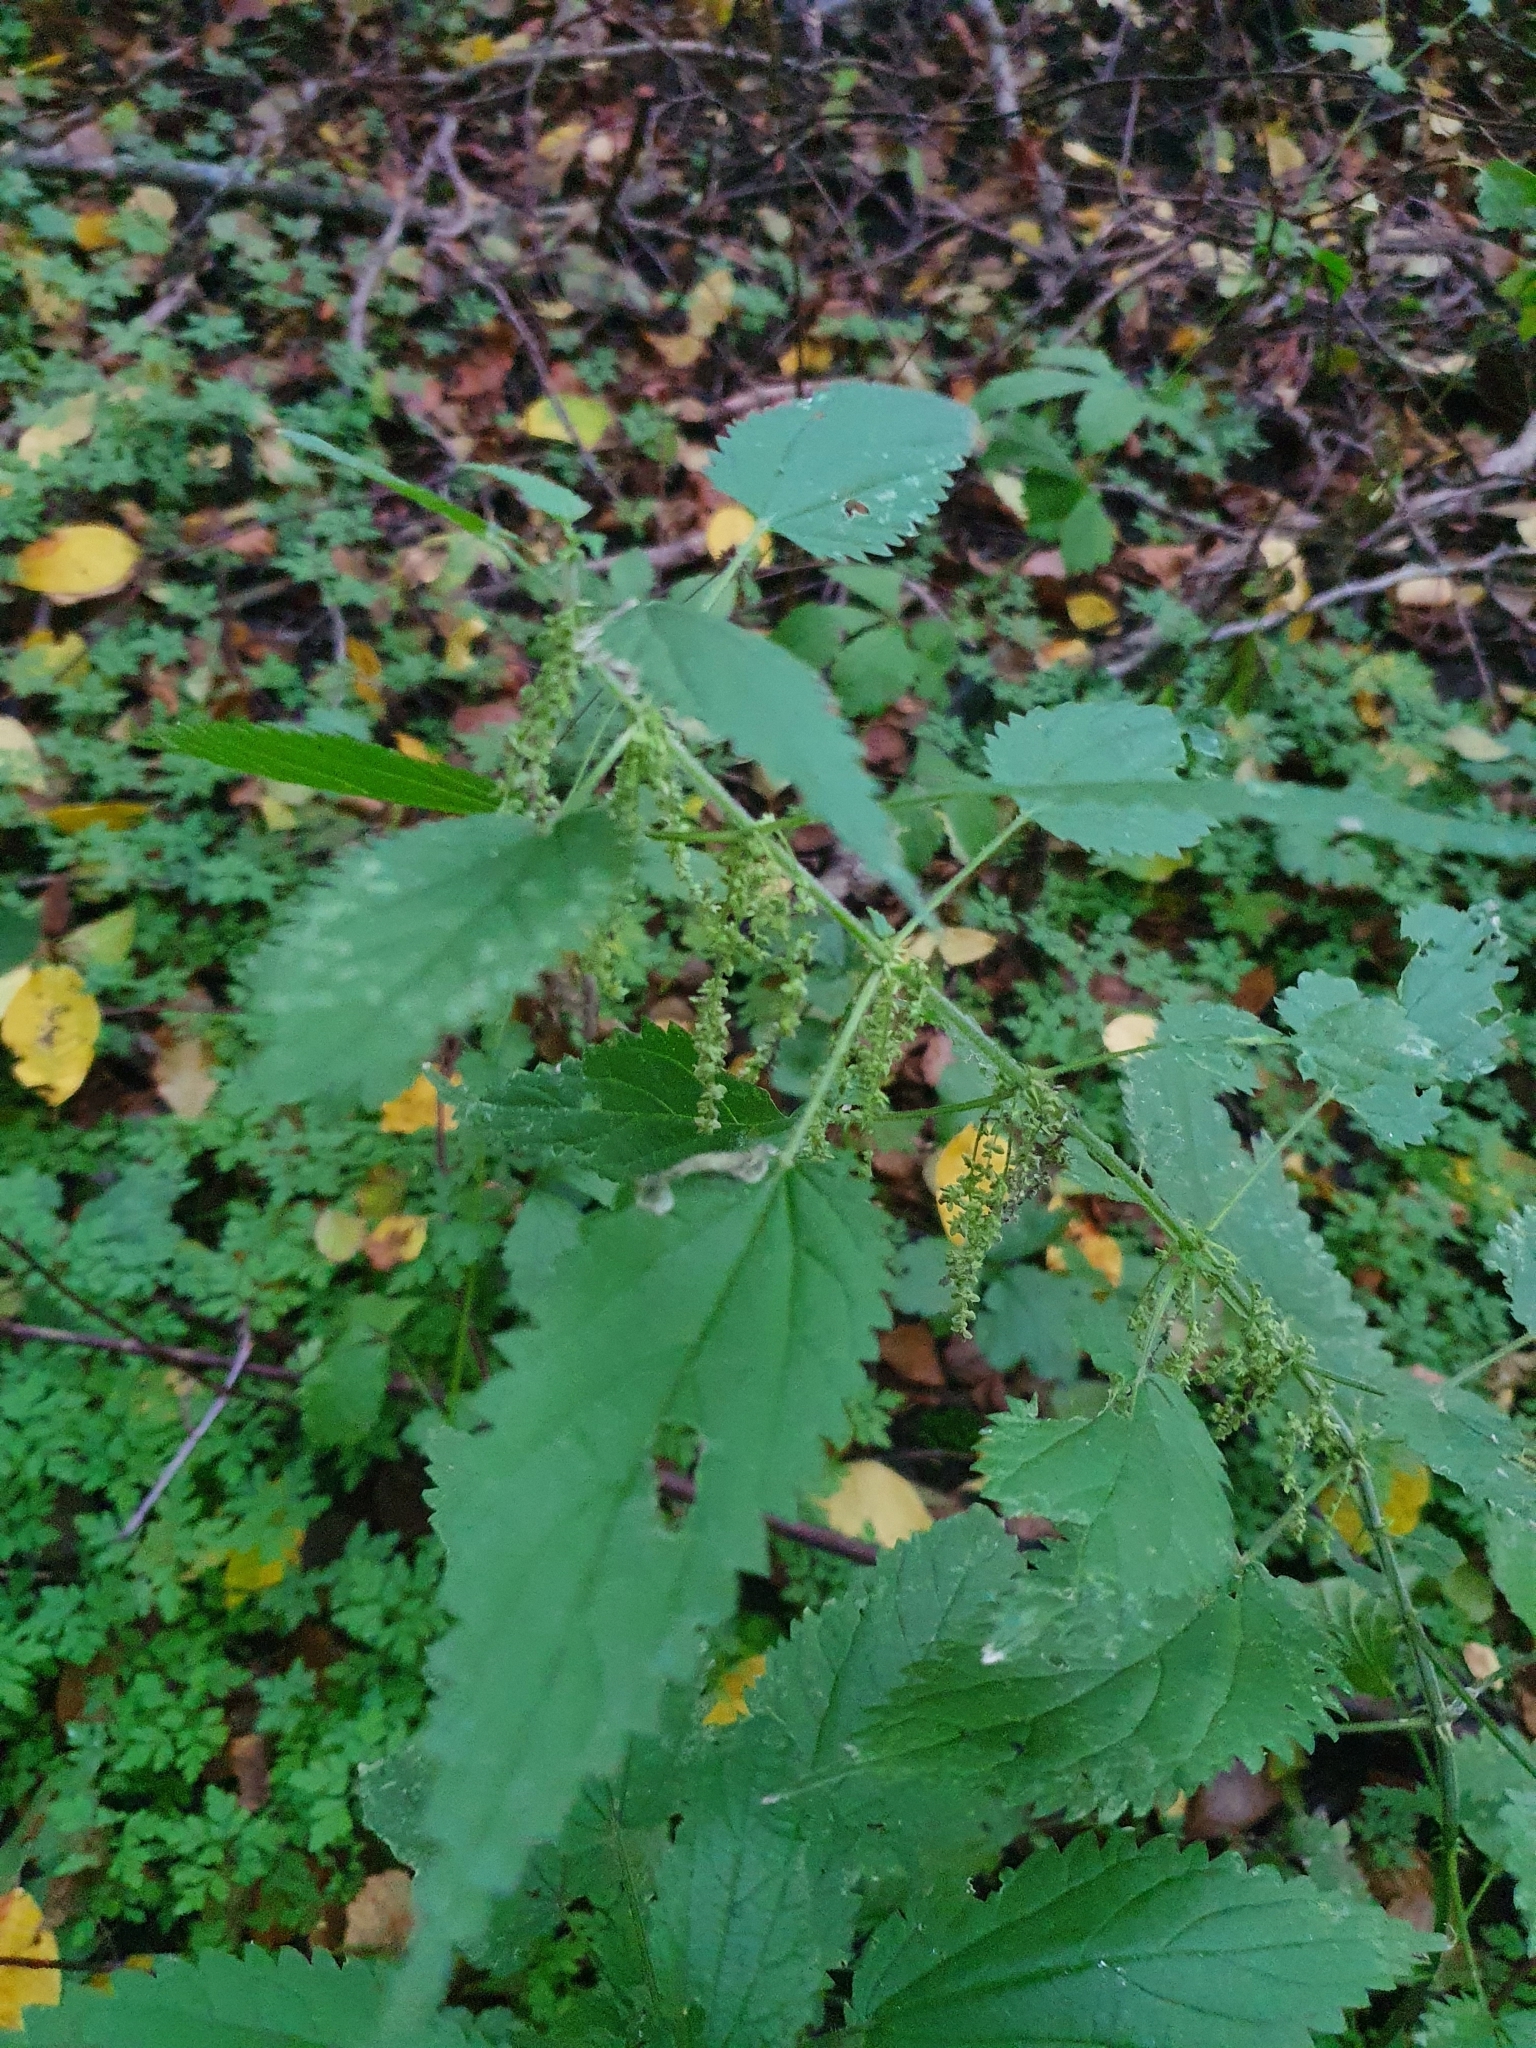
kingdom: Plantae
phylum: Tracheophyta
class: Magnoliopsida
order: Rosales
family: Urticaceae
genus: Urtica
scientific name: Urtica dioica
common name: Common nettle
